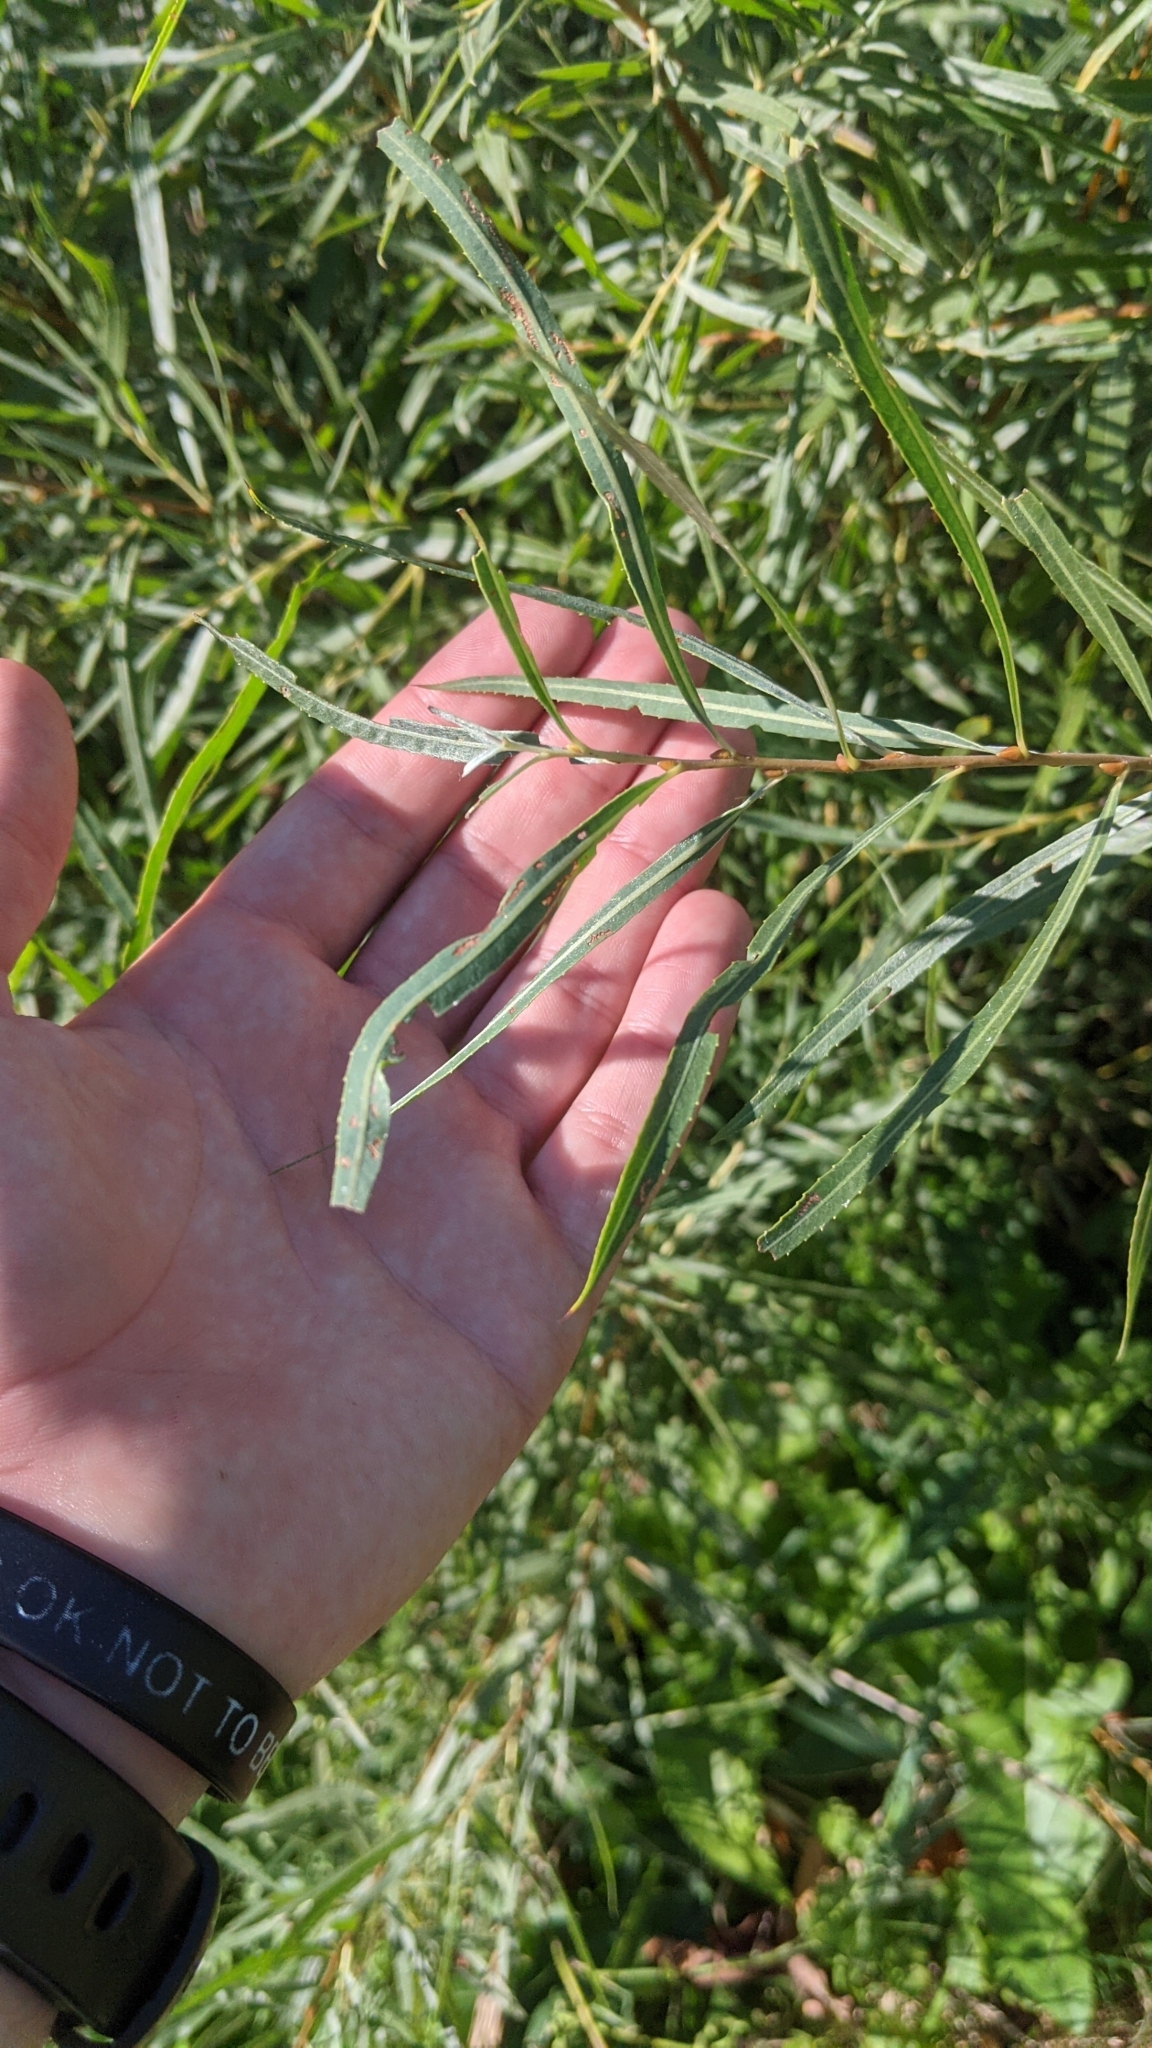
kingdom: Plantae
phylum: Tracheophyta
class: Magnoliopsida
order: Malpighiales
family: Salicaceae
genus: Salix
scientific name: Salix interior
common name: Sandbar willow
